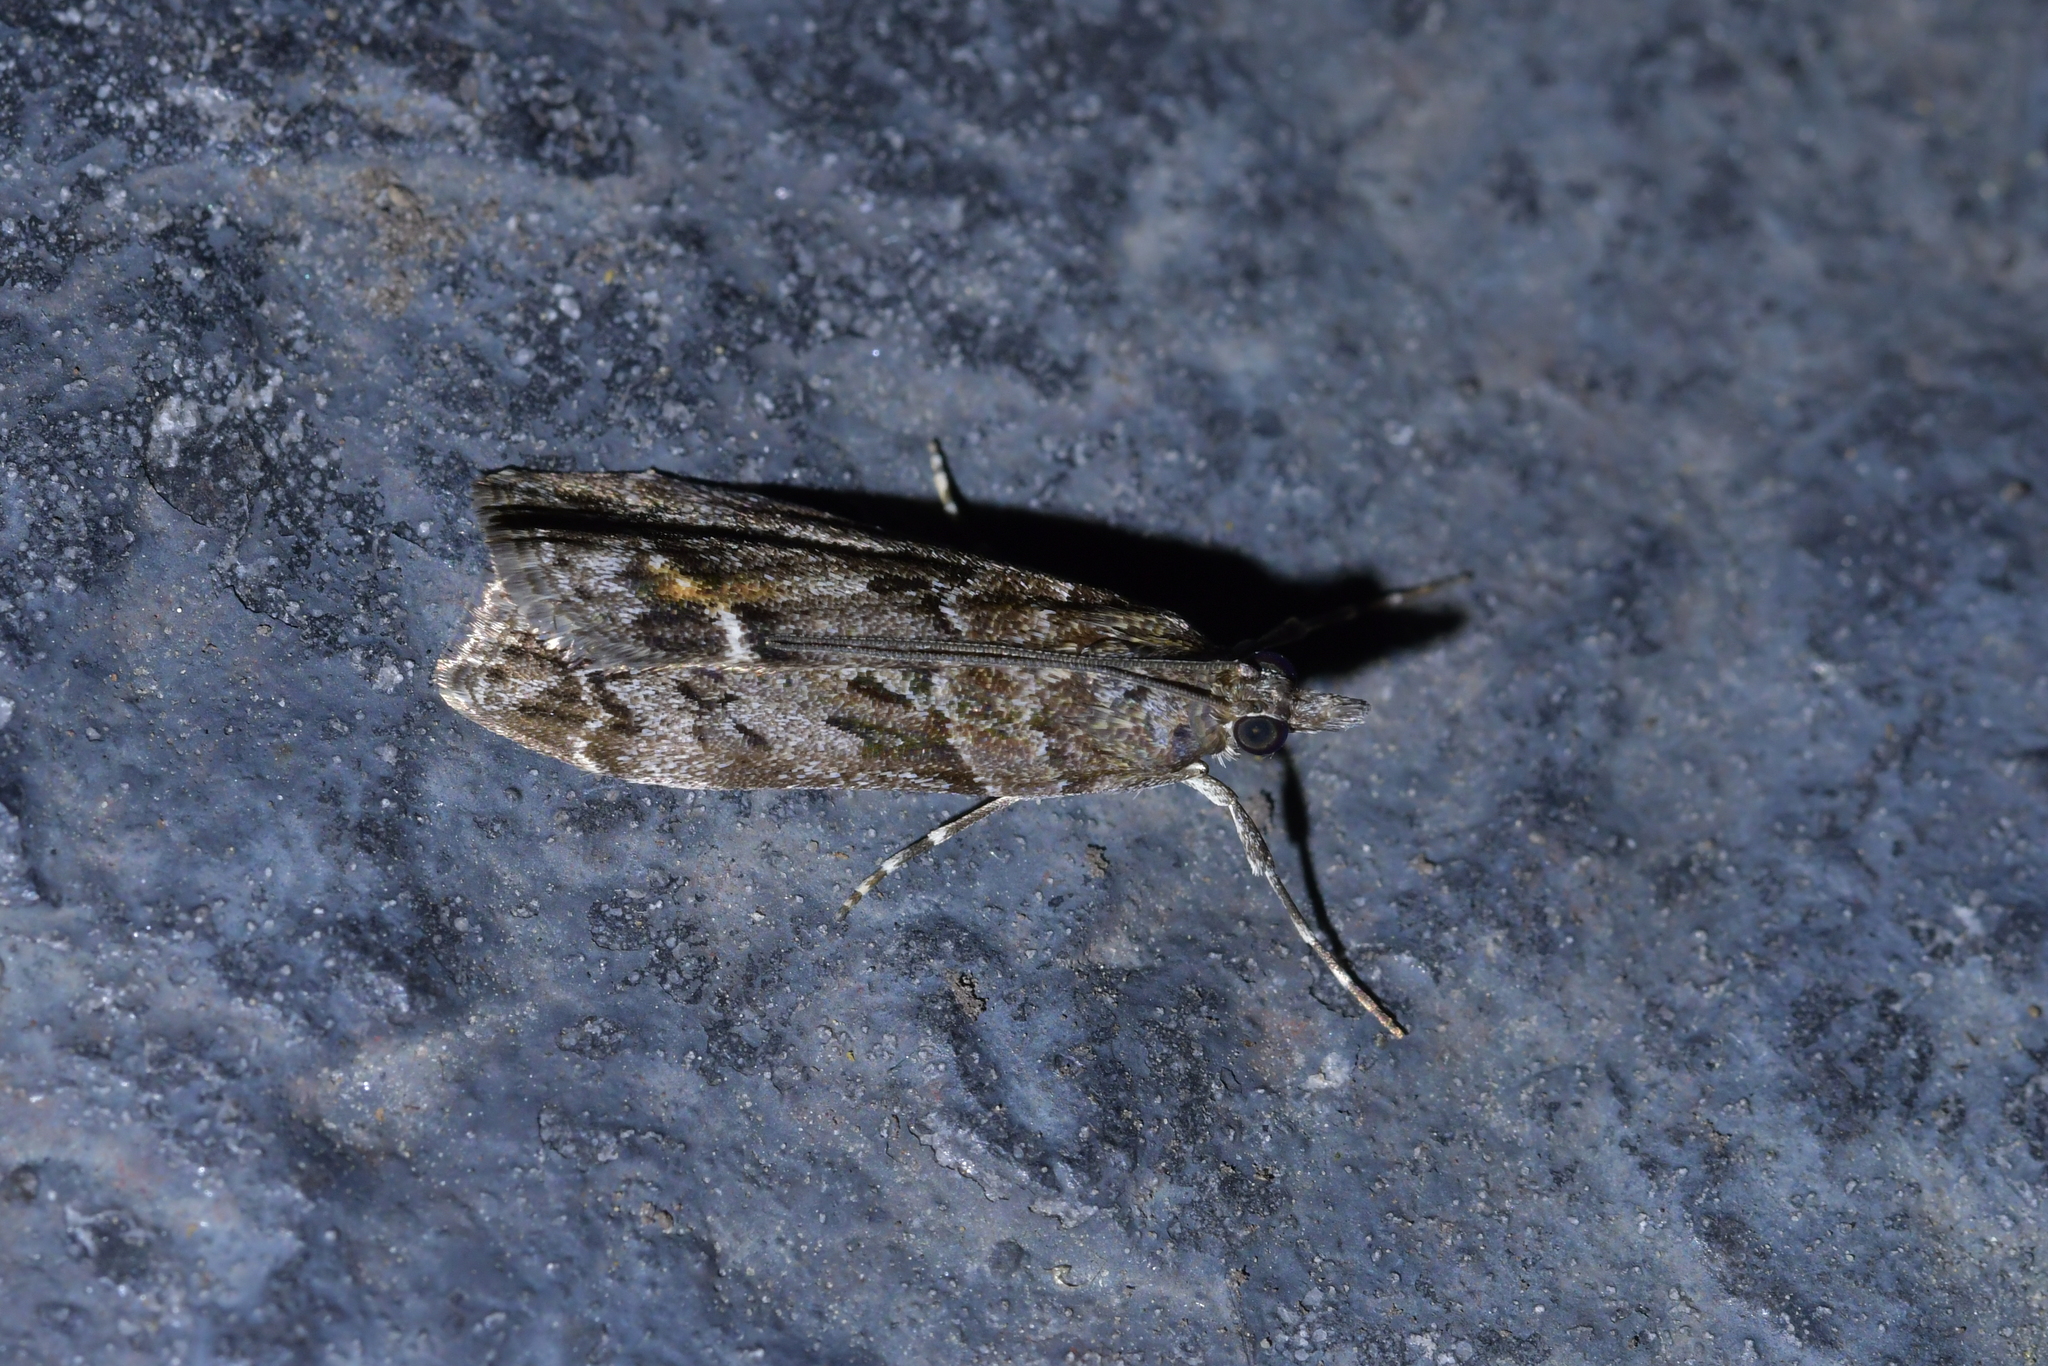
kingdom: Animalia
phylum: Arthropoda
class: Insecta
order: Lepidoptera
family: Crambidae
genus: Eudonia
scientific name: Eudonia submarginalis
